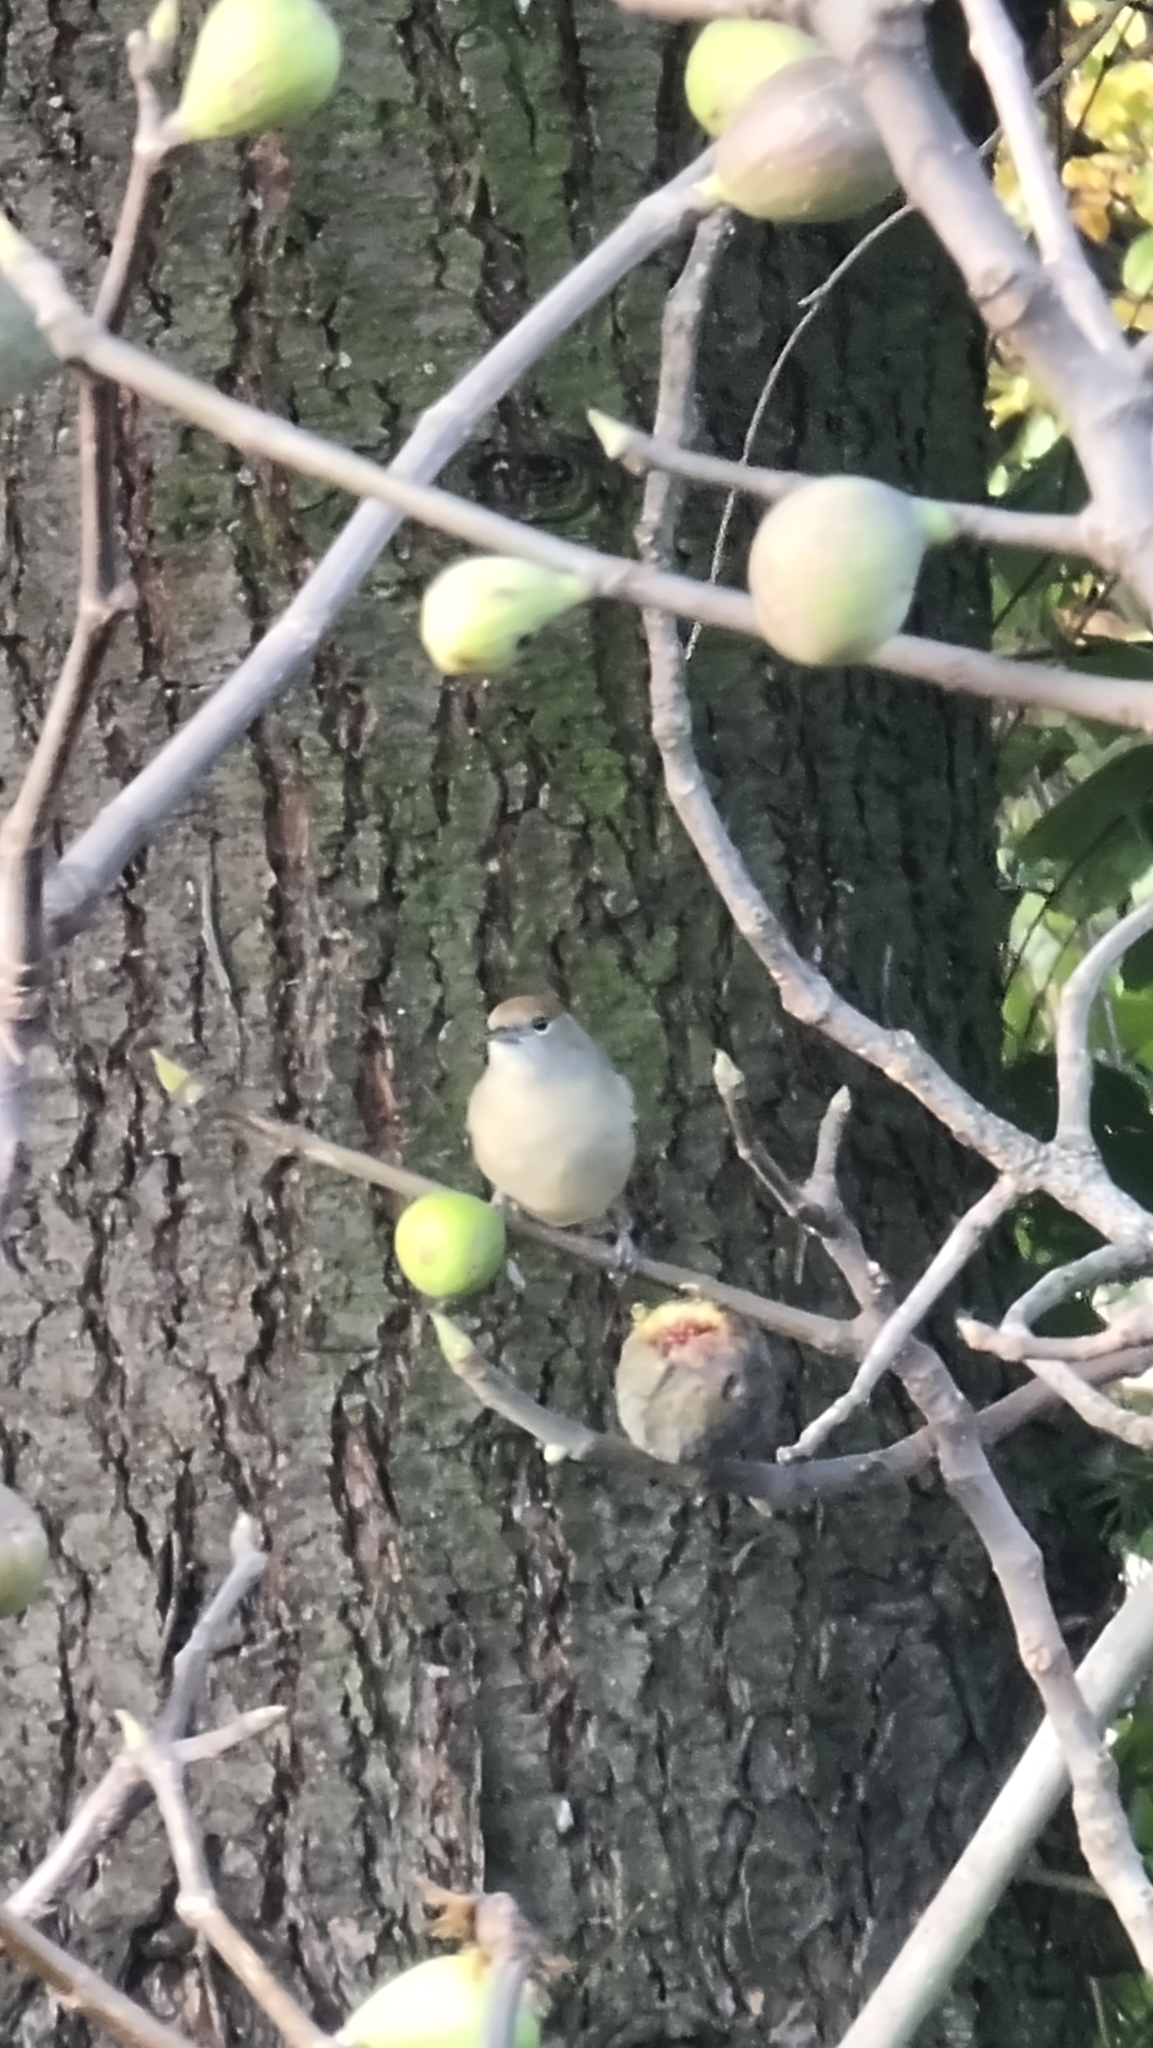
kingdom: Animalia
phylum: Chordata
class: Aves
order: Passeriformes
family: Sylviidae
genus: Sylvia
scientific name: Sylvia atricapilla
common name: Eurasian blackcap
